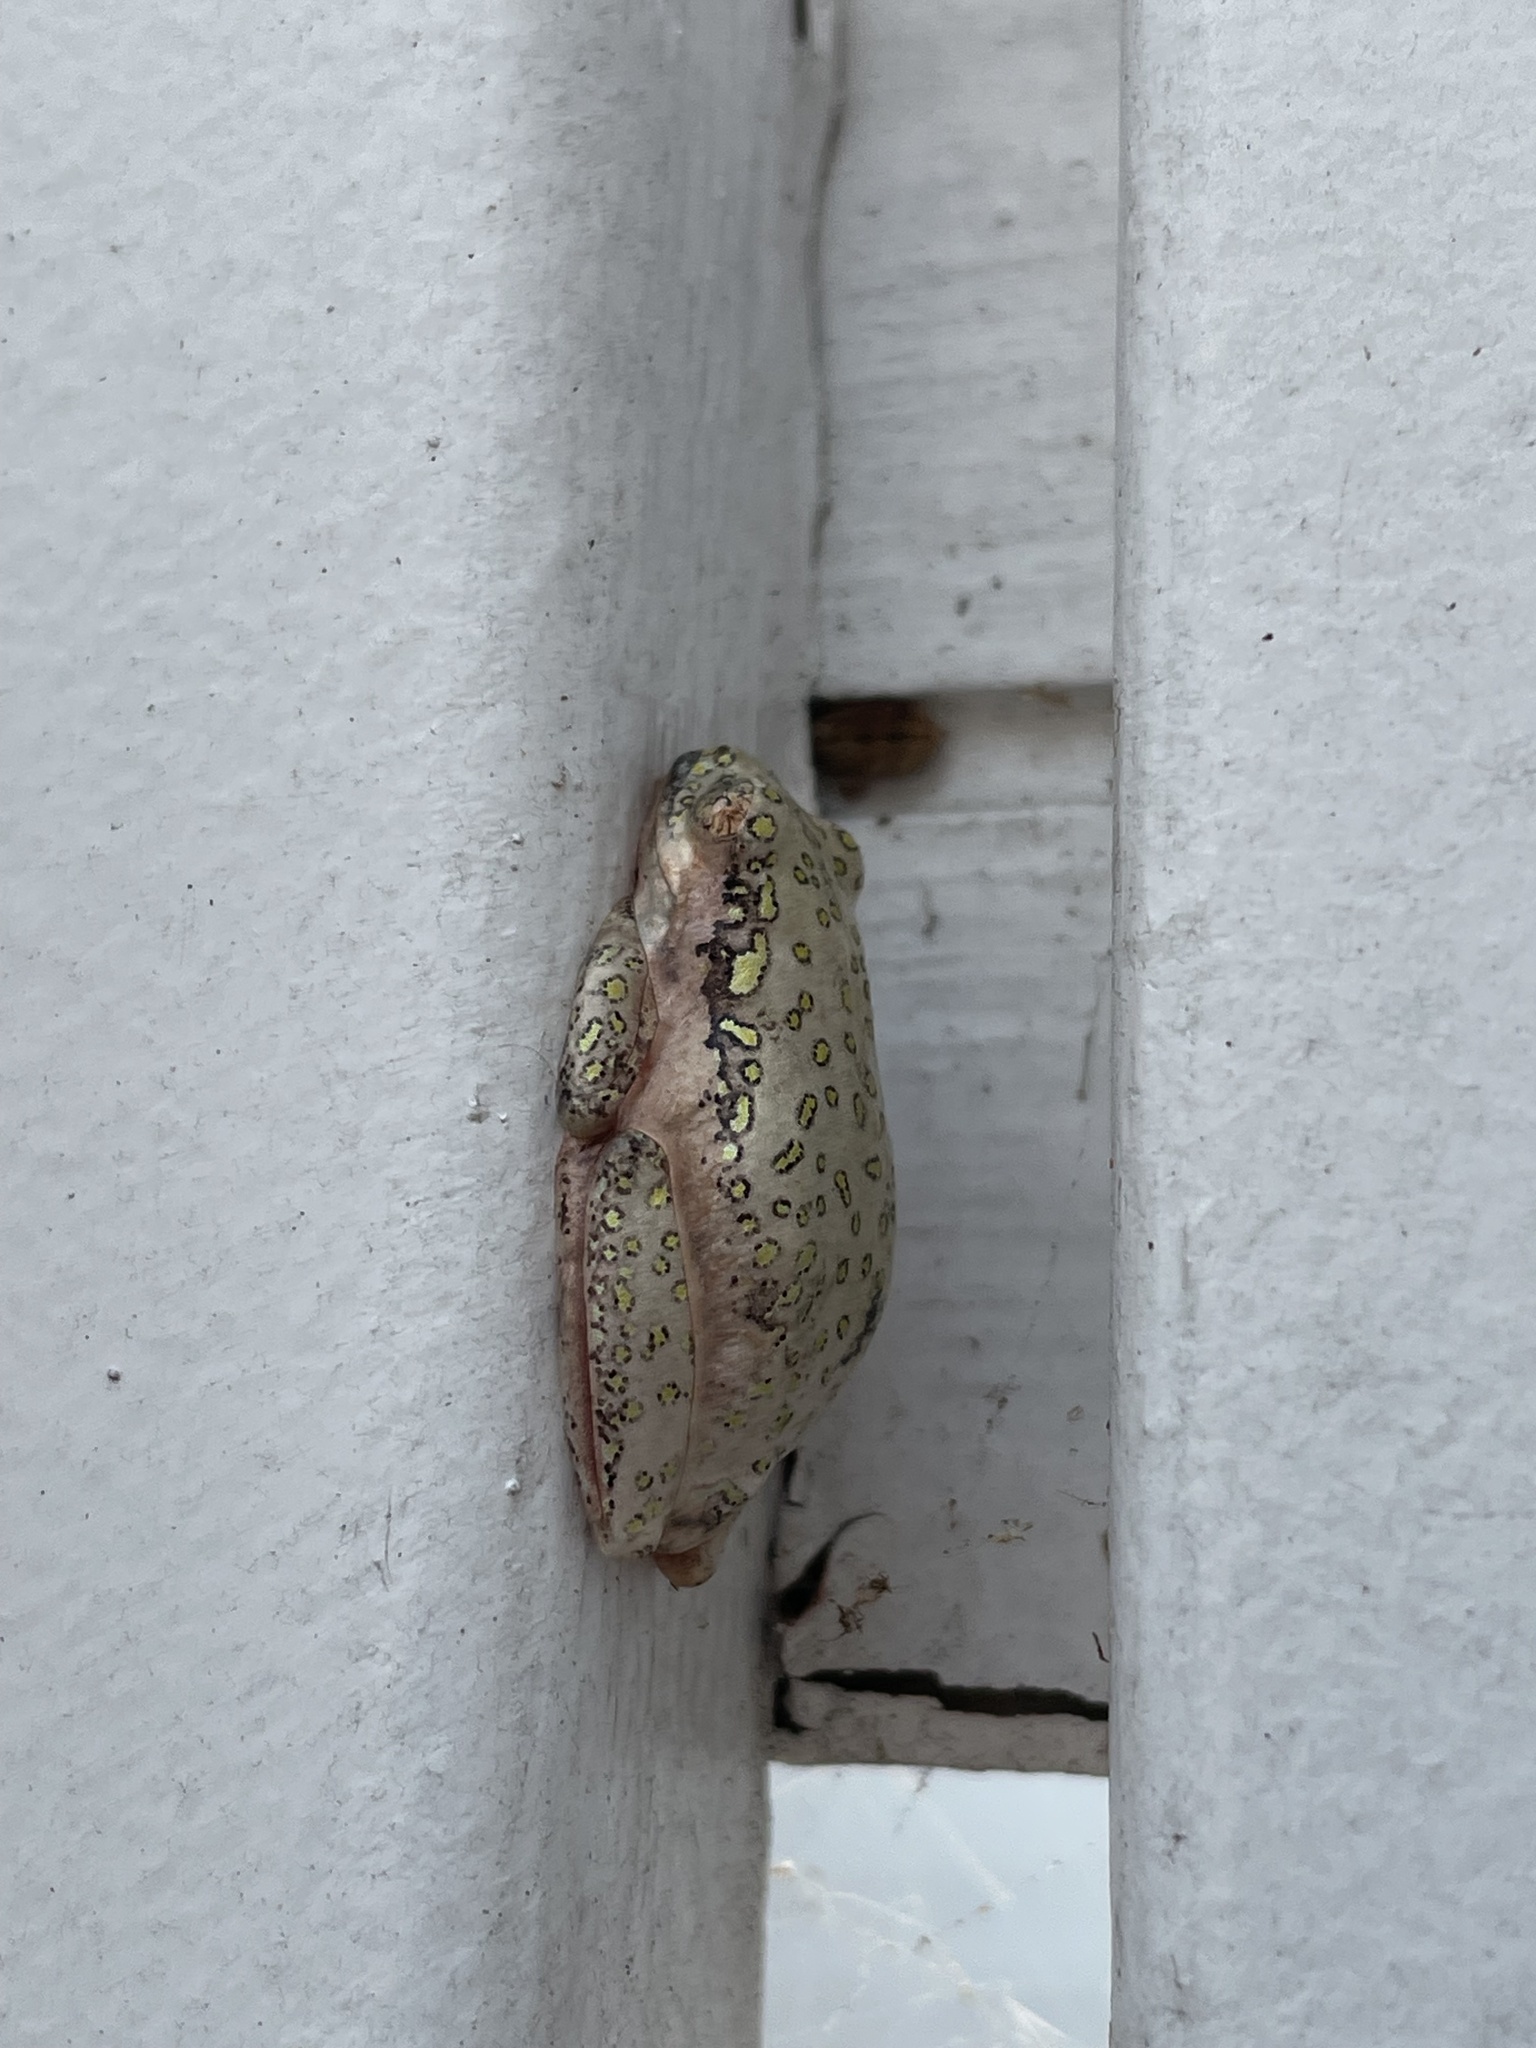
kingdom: Animalia
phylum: Chordata
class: Amphibia
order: Anura
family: Hyperoliidae
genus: Hyperolius
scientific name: Hyperolius marmoratus
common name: Painted reed frog
